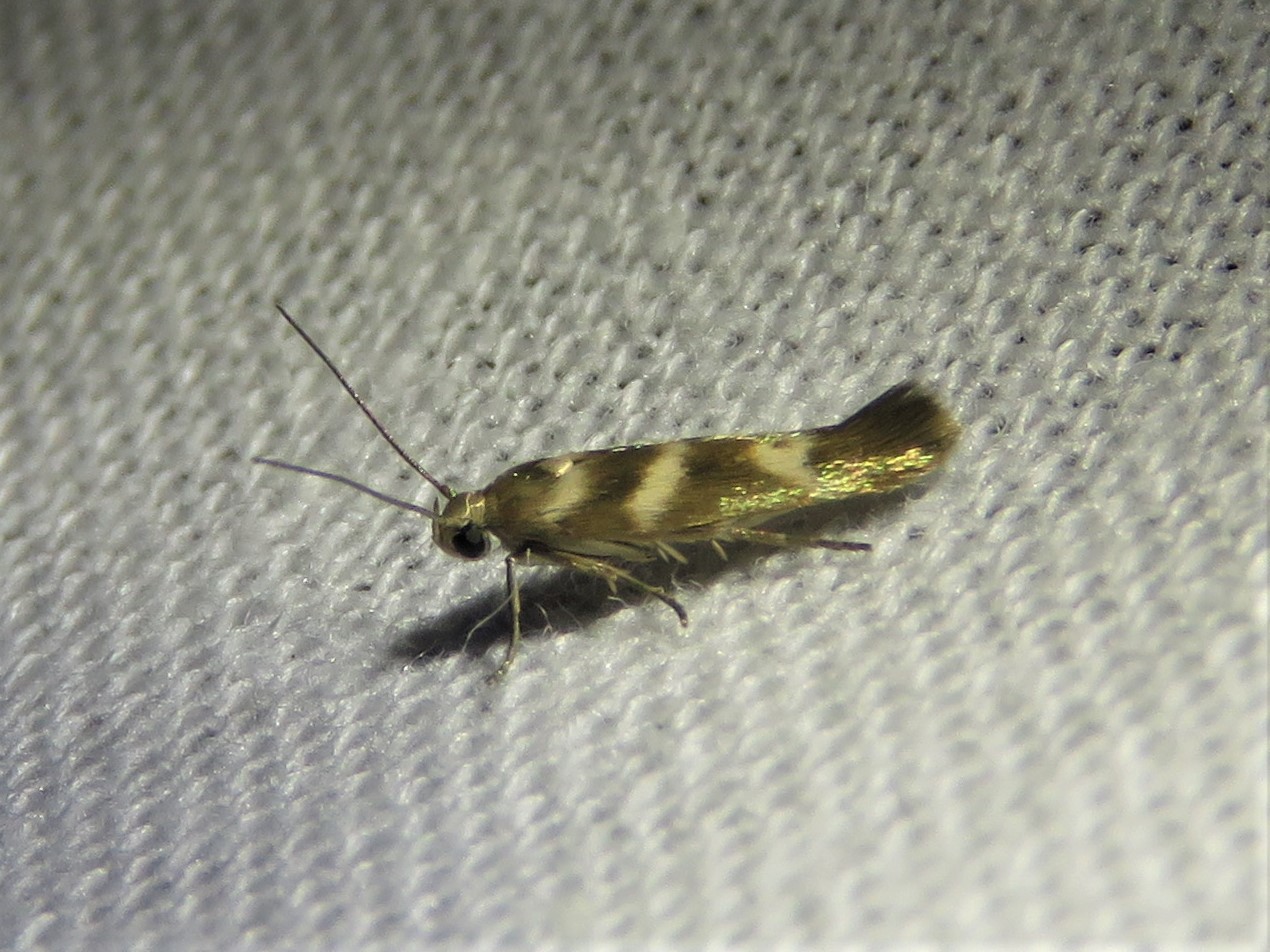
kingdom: Animalia
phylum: Arthropoda
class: Insecta
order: Lepidoptera
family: Scythrididae
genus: Scythris
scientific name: Scythris trivinctella
